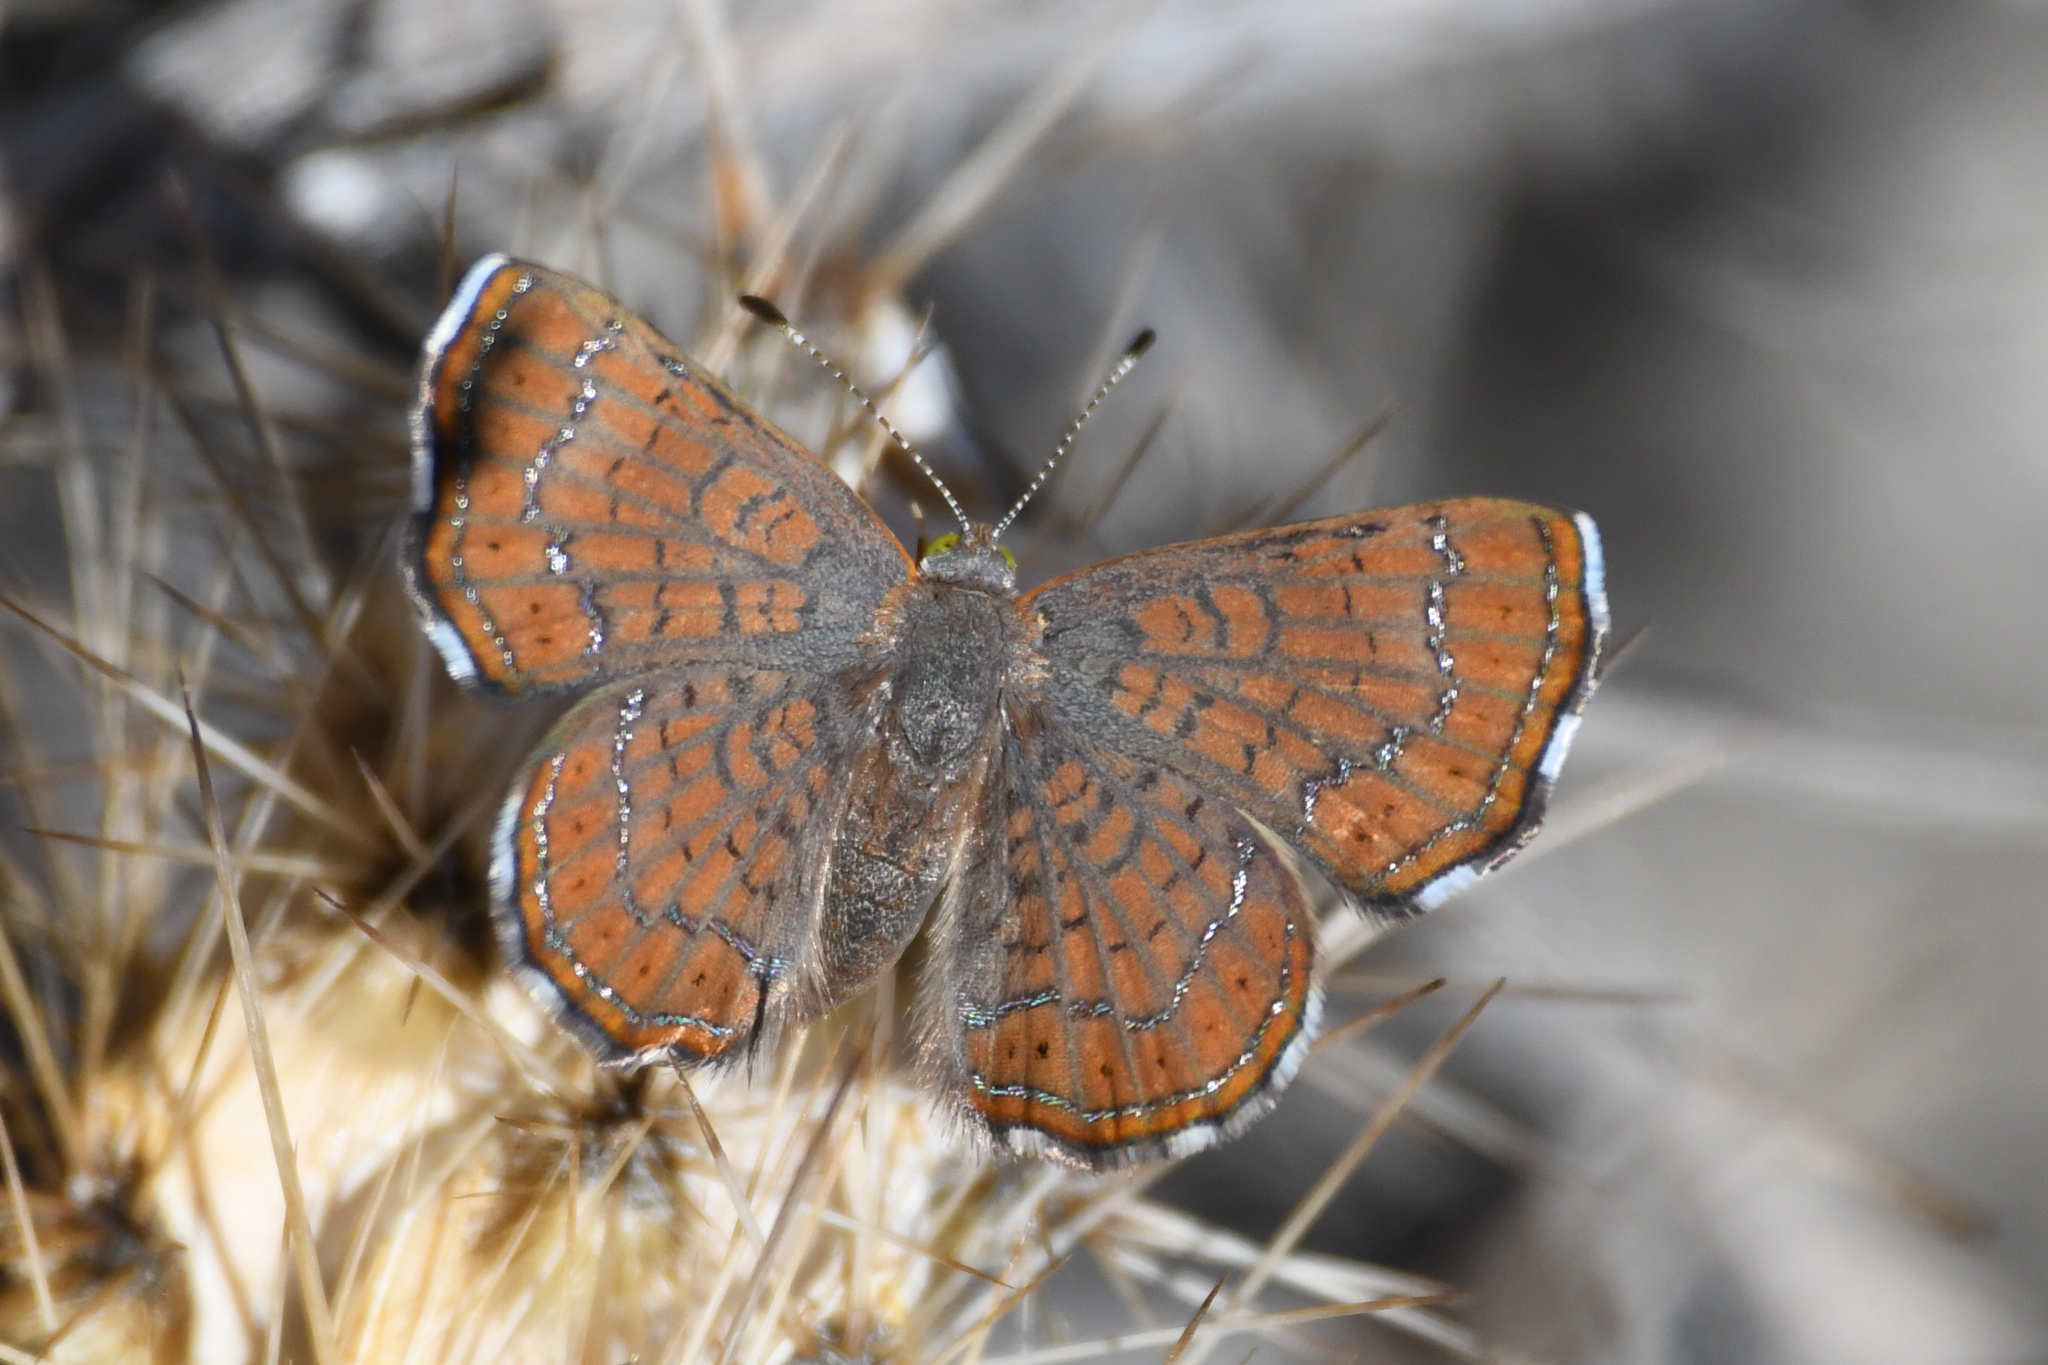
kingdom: Animalia
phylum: Arthropoda
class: Insecta
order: Lepidoptera
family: Lycaenidae
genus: Emesis
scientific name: Emesis wrighti
